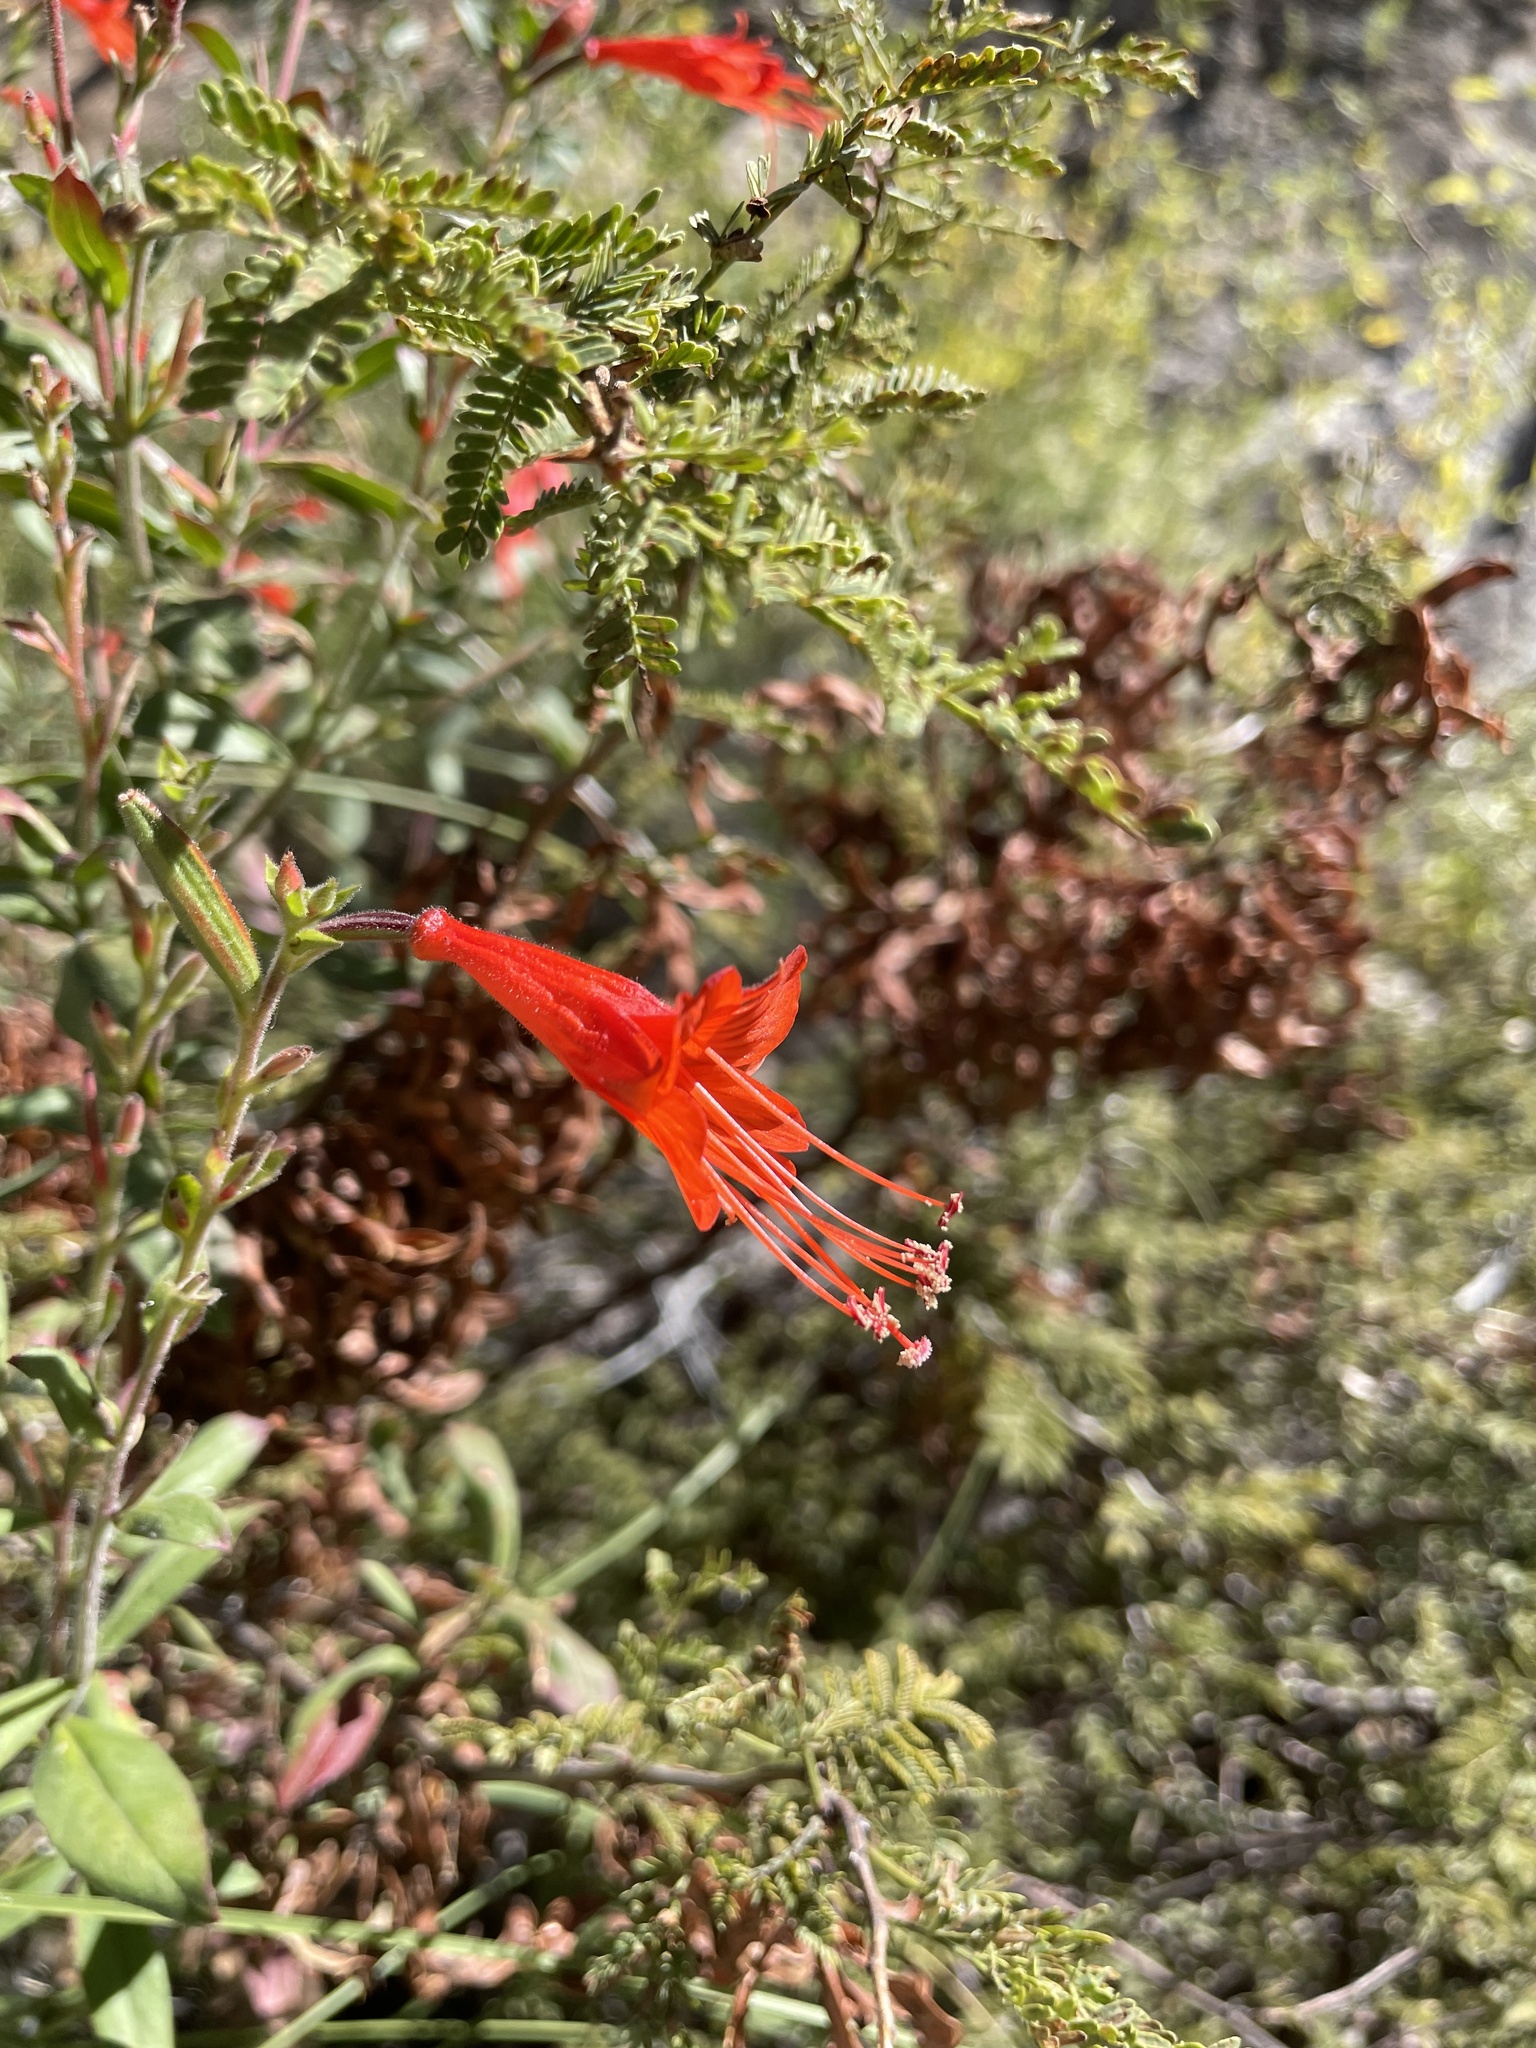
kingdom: Plantae
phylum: Tracheophyta
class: Magnoliopsida
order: Myrtales
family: Onagraceae
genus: Epilobium
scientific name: Epilobium canum
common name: California-fuchsia
